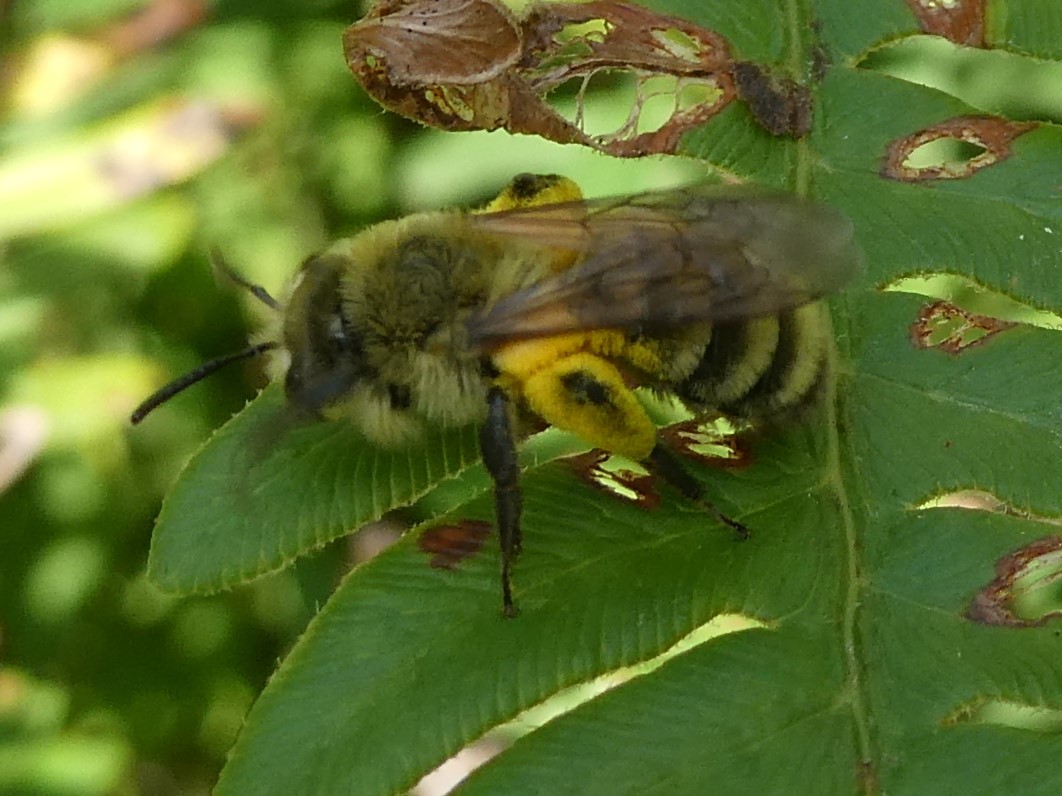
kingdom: Animalia
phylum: Arthropoda
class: Insecta
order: Hymenoptera
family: Andrenidae
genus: Andrena
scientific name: Andrena hirticincta
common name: Hairy-banded mining bee
